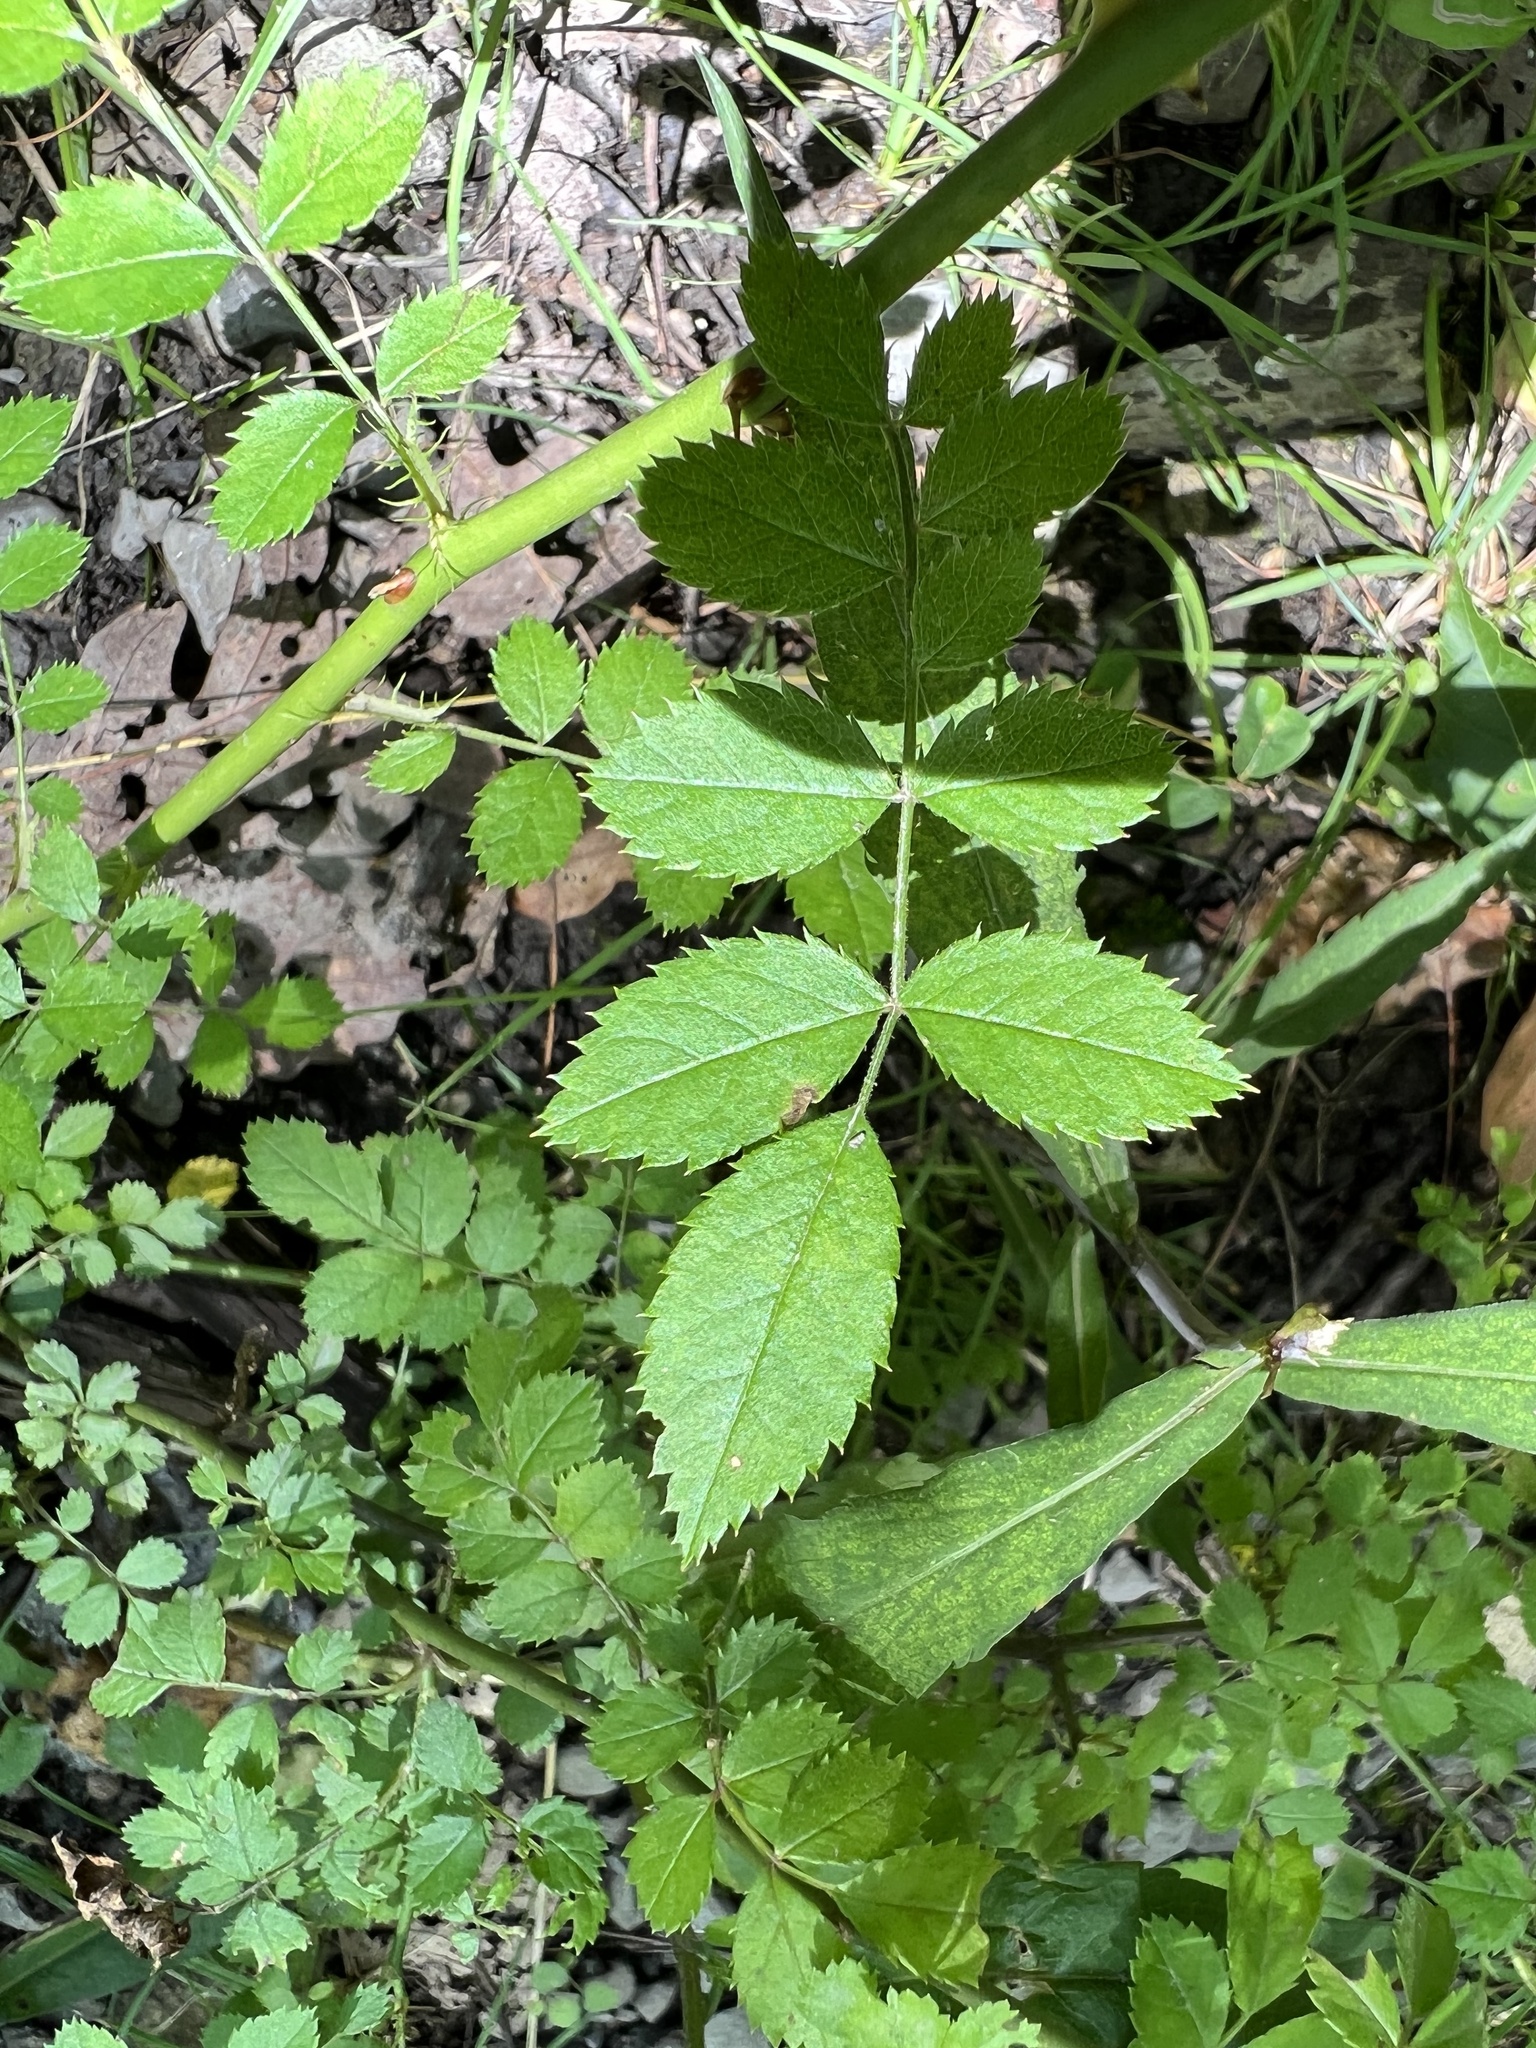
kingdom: Plantae
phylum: Tracheophyta
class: Magnoliopsida
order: Rosales
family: Rosaceae
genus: Rosa
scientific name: Rosa multiflora
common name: Multiflora rose
